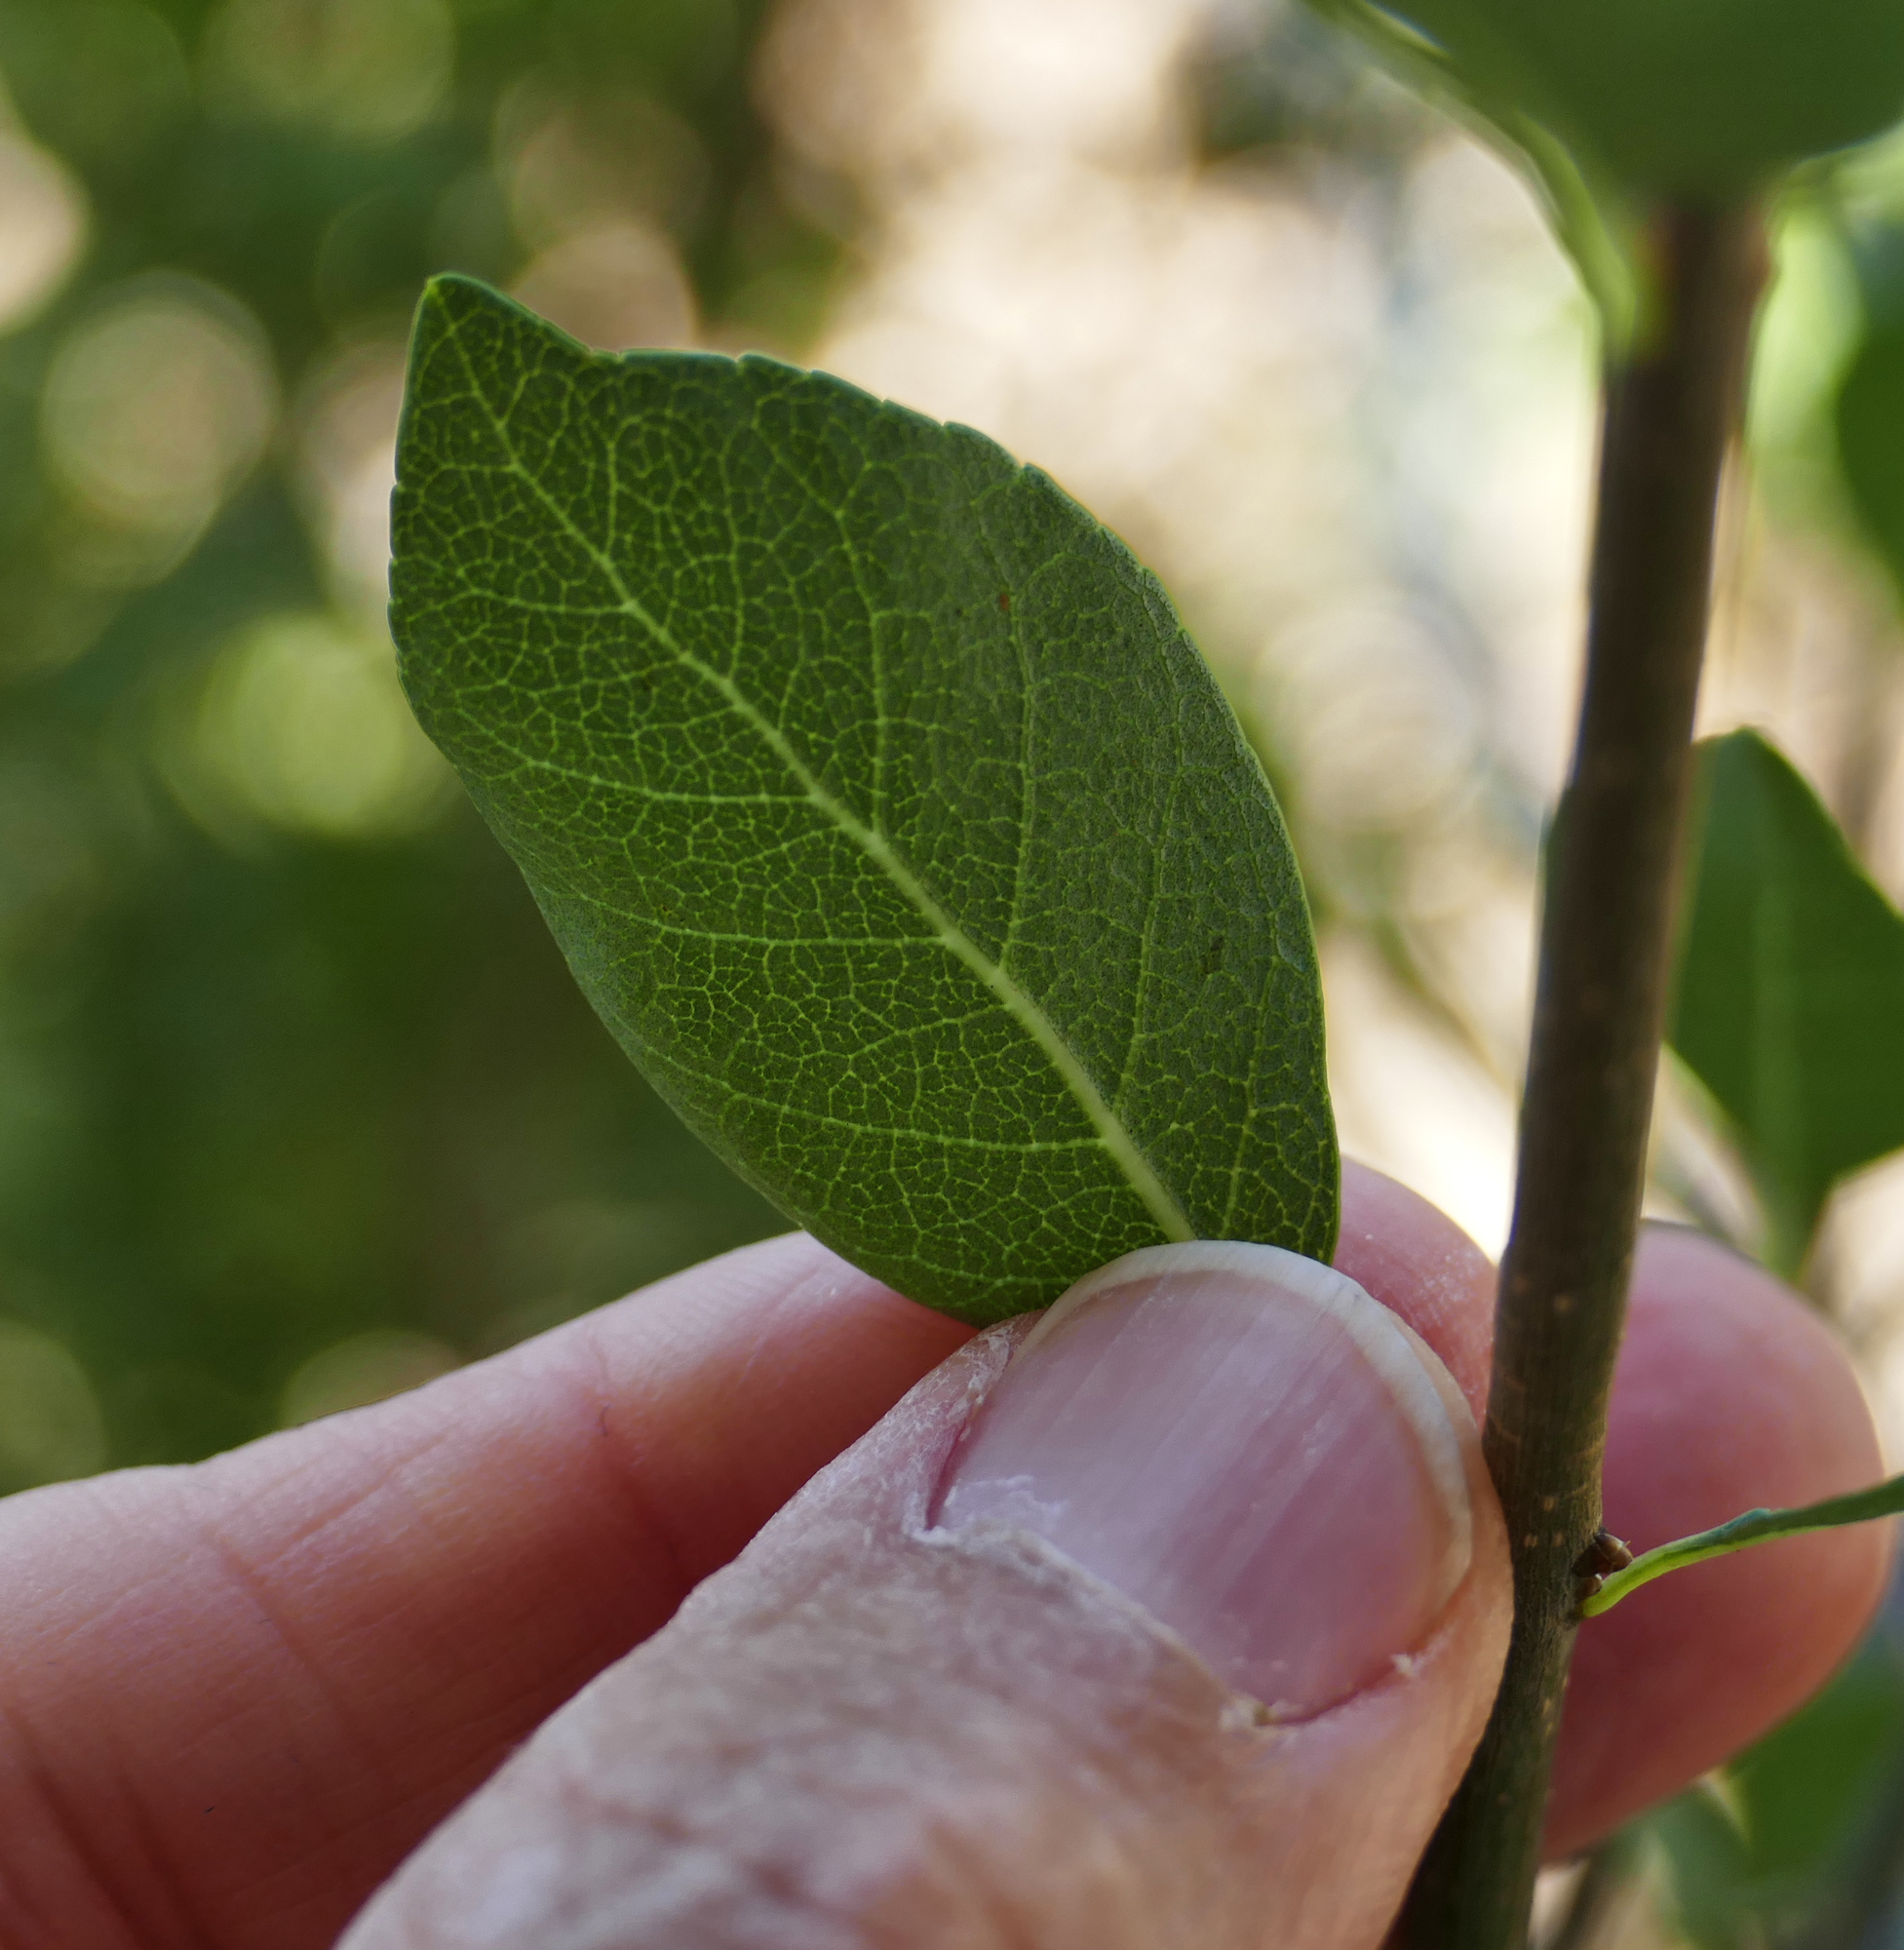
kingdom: Plantae
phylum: Tracheophyta
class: Magnoliopsida
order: Lamiales
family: Oleaceae
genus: Forestiera
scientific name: Forestiera pubescens
